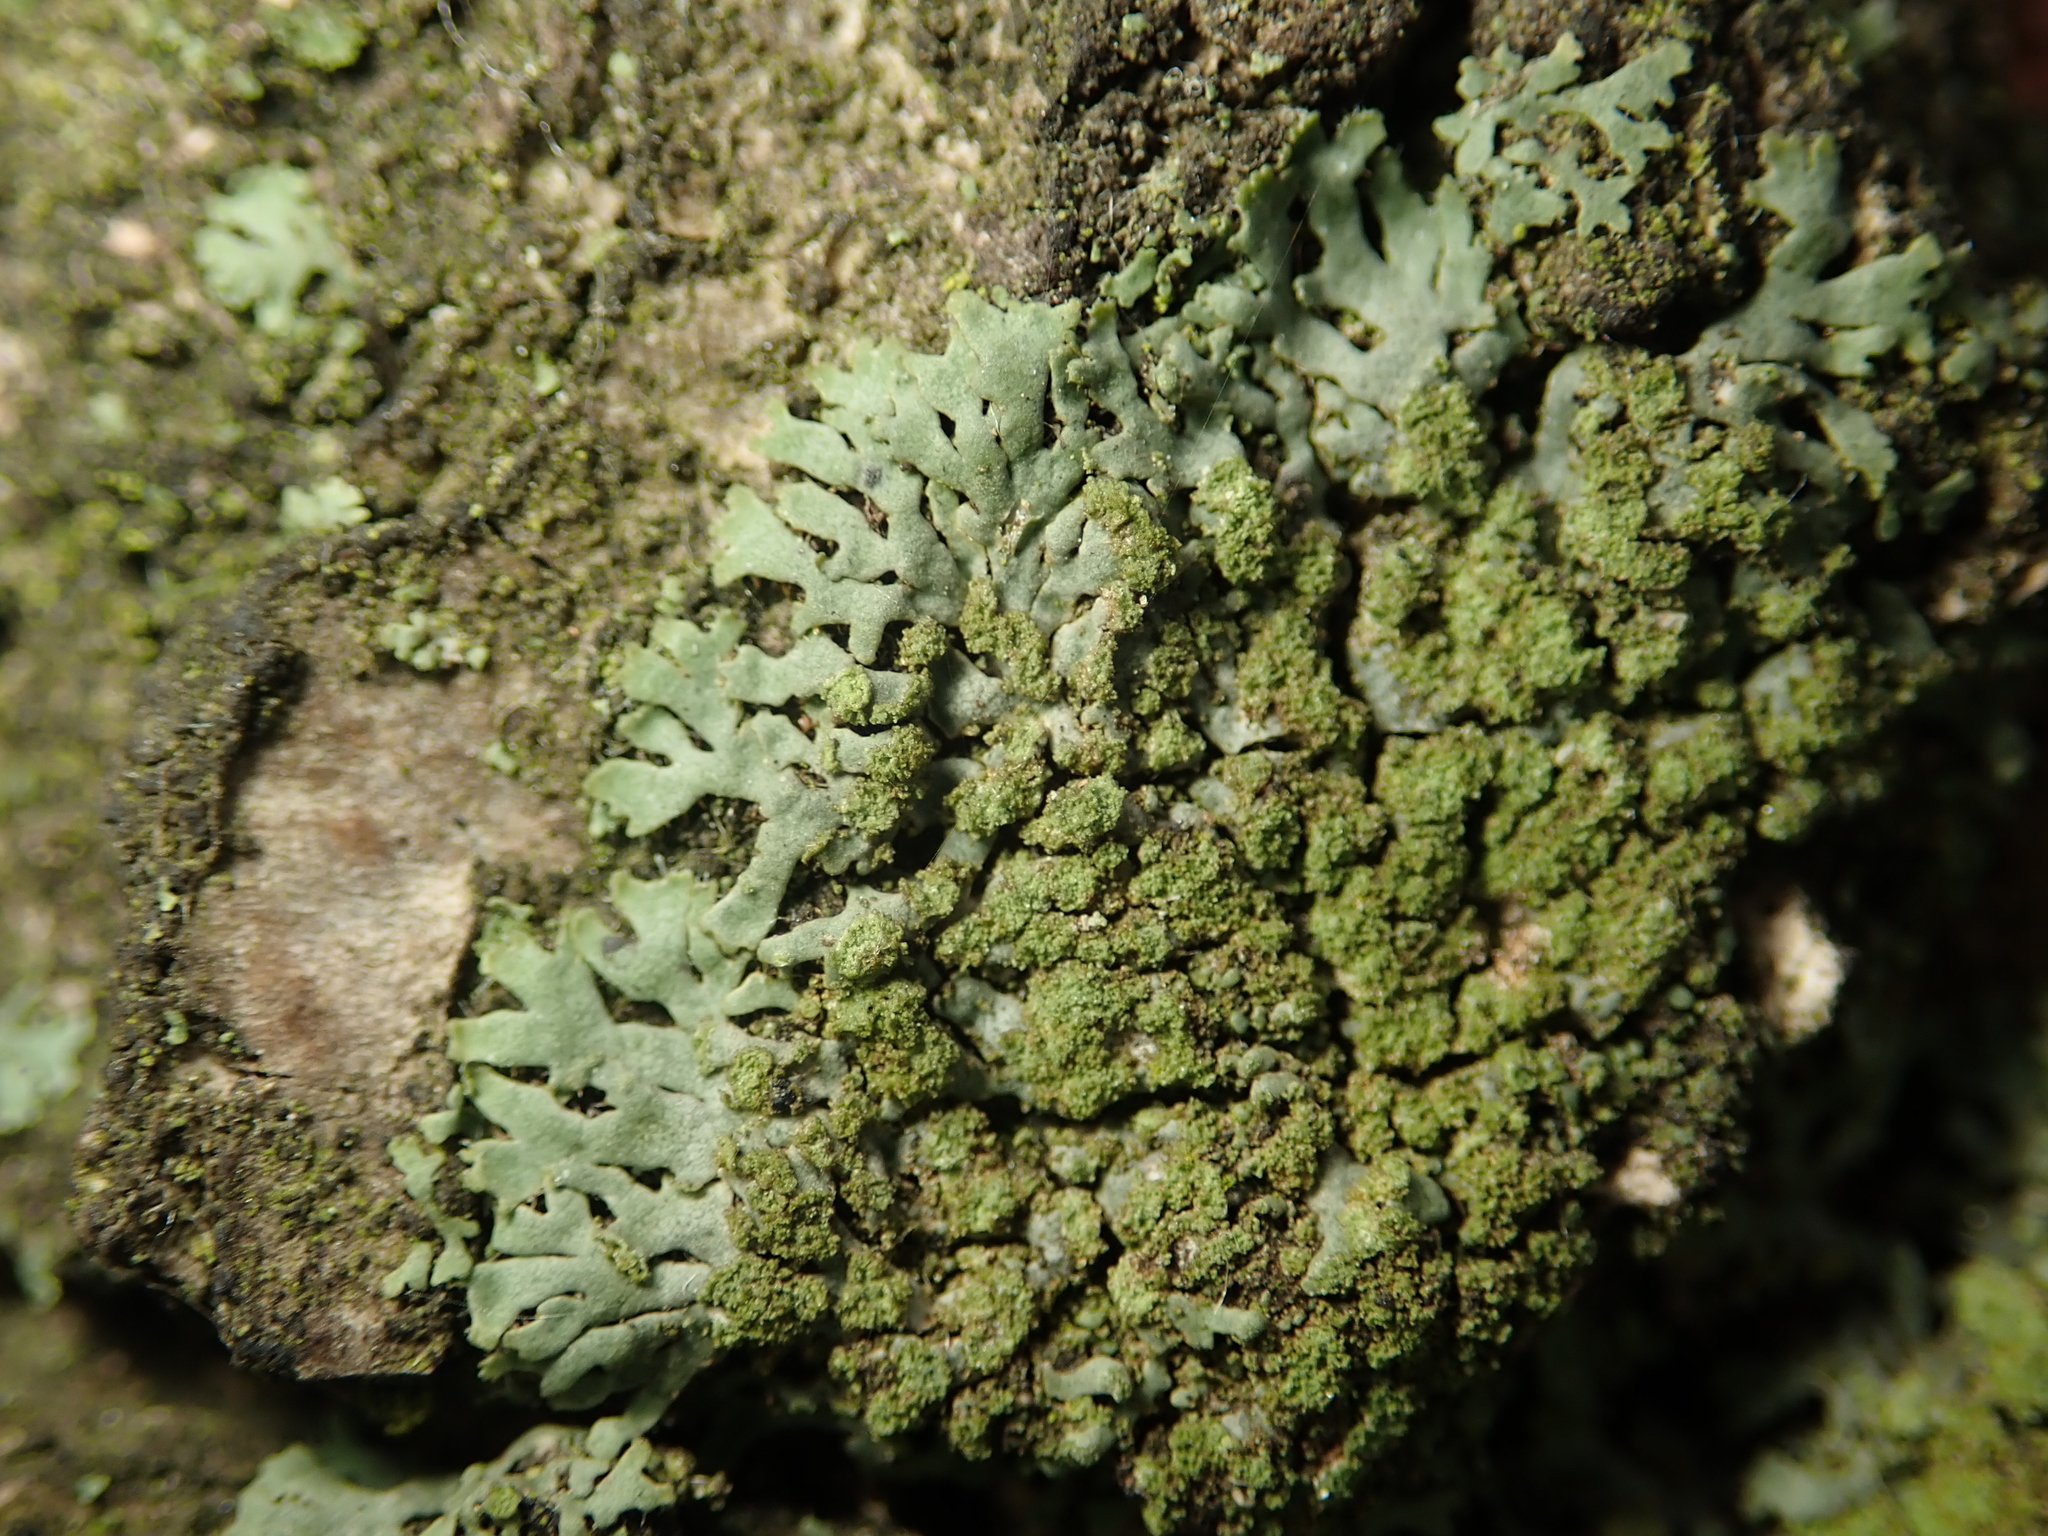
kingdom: Fungi
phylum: Ascomycota
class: Lecanoromycetes
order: Caliciales
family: Physciaceae
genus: Phaeophyscia
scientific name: Phaeophyscia orbicularis
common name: Mealy shadow lichen
